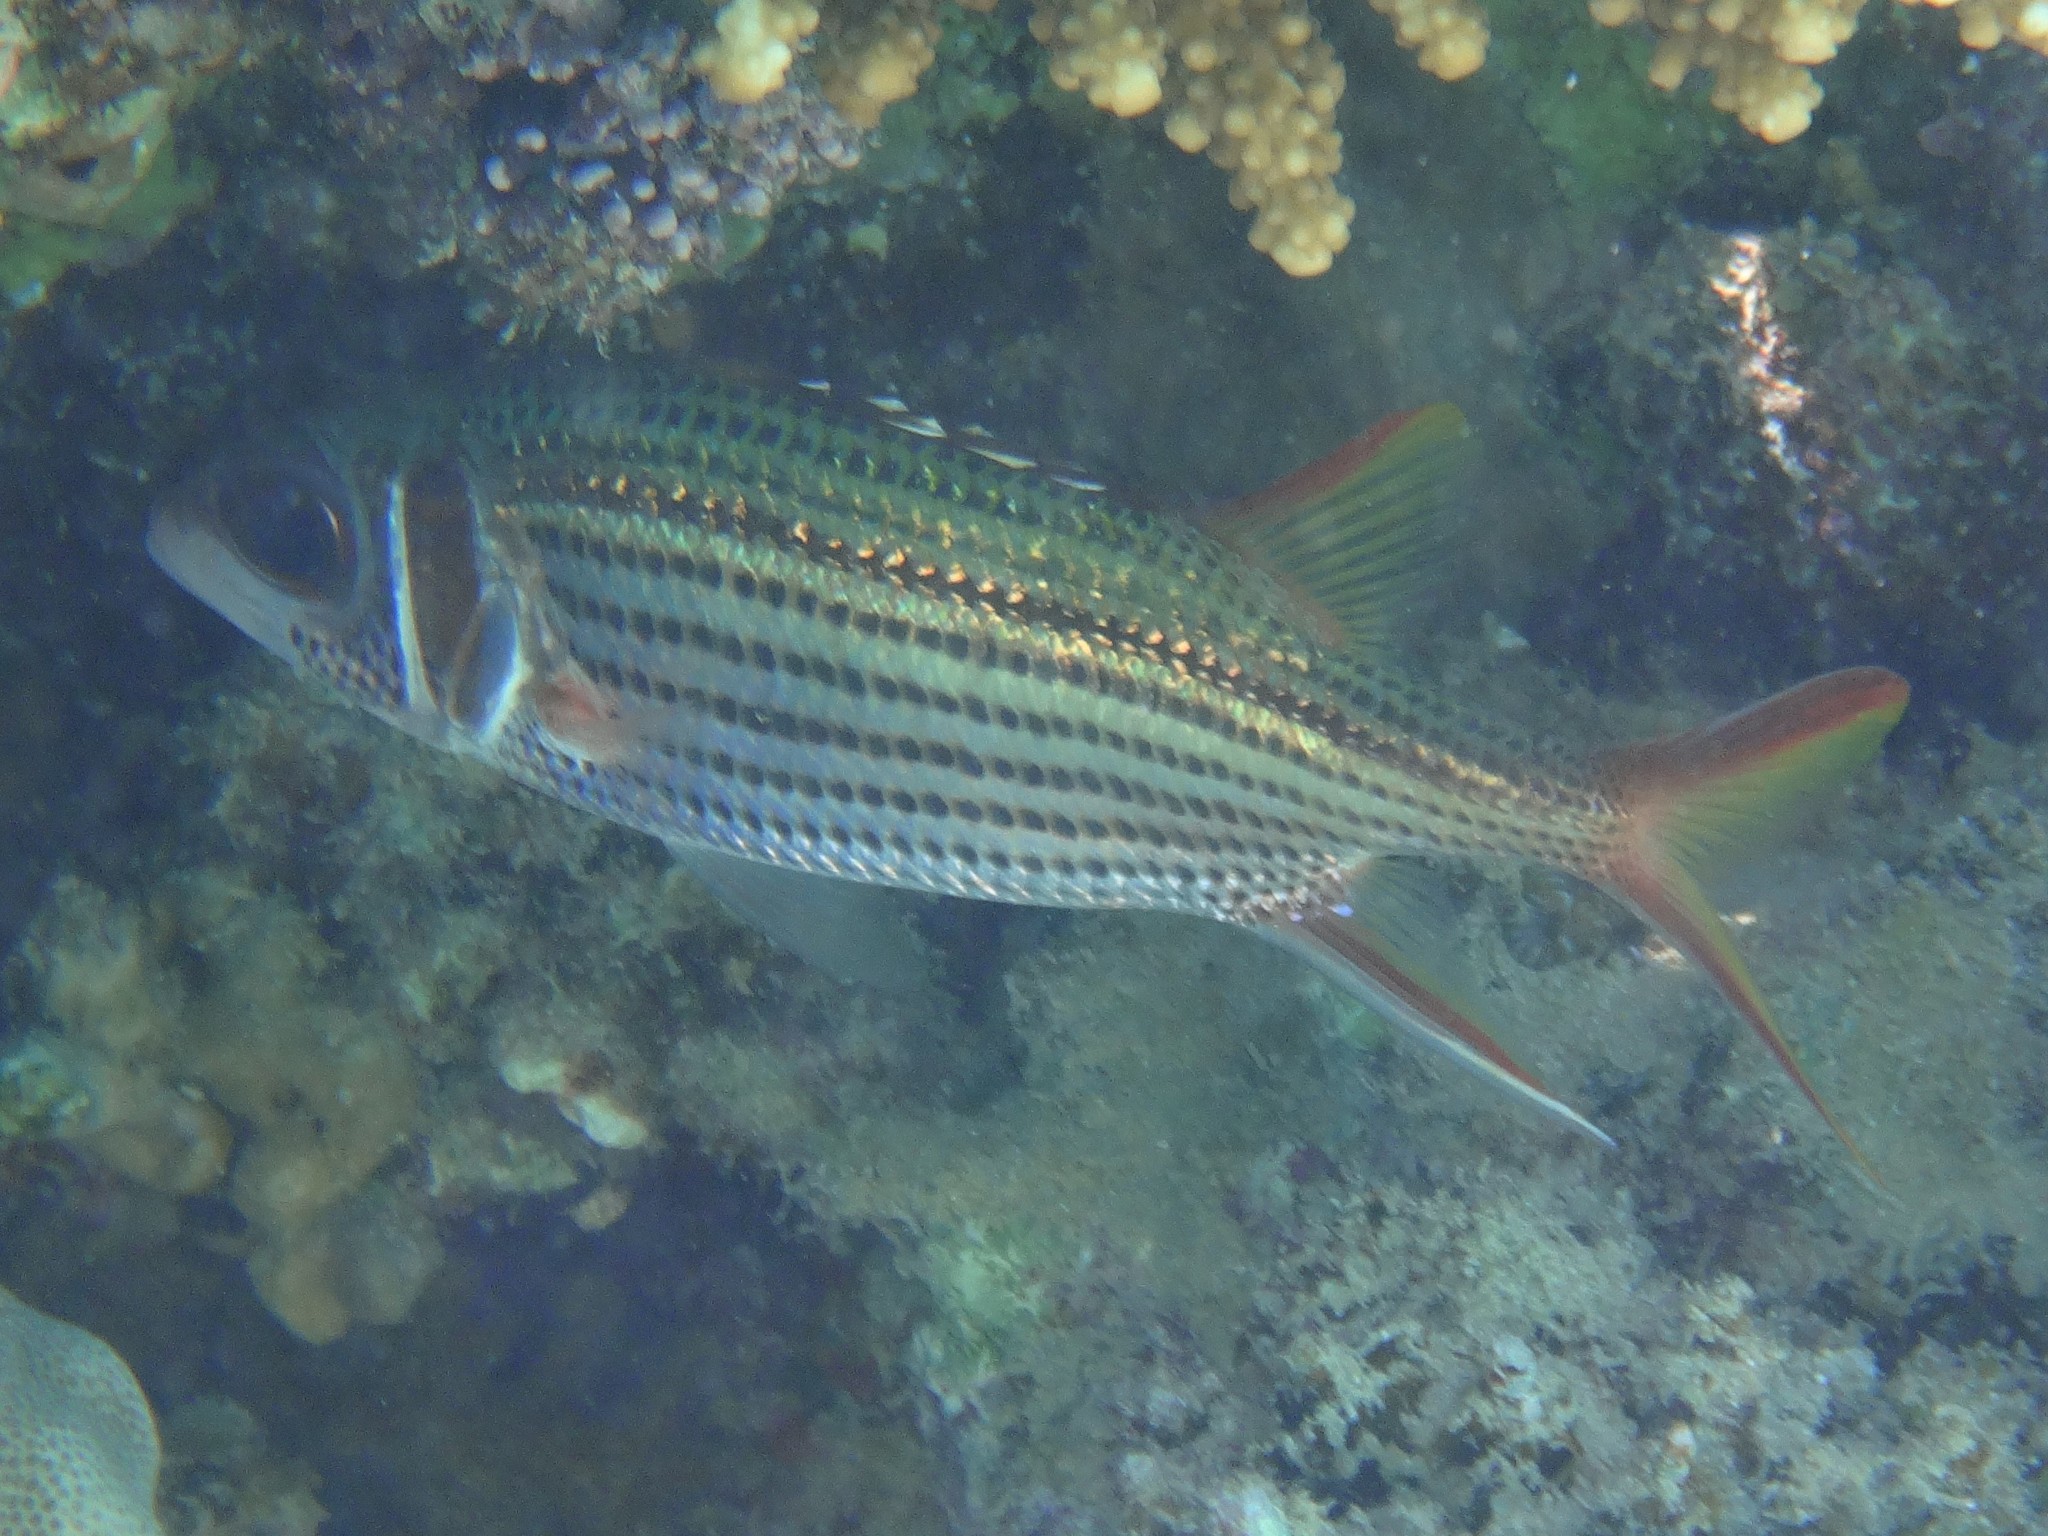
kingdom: Animalia
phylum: Chordata
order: Beryciformes
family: Holocentridae
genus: Neoniphon
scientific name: Neoniphon sammara
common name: Sammara squirrelfish
